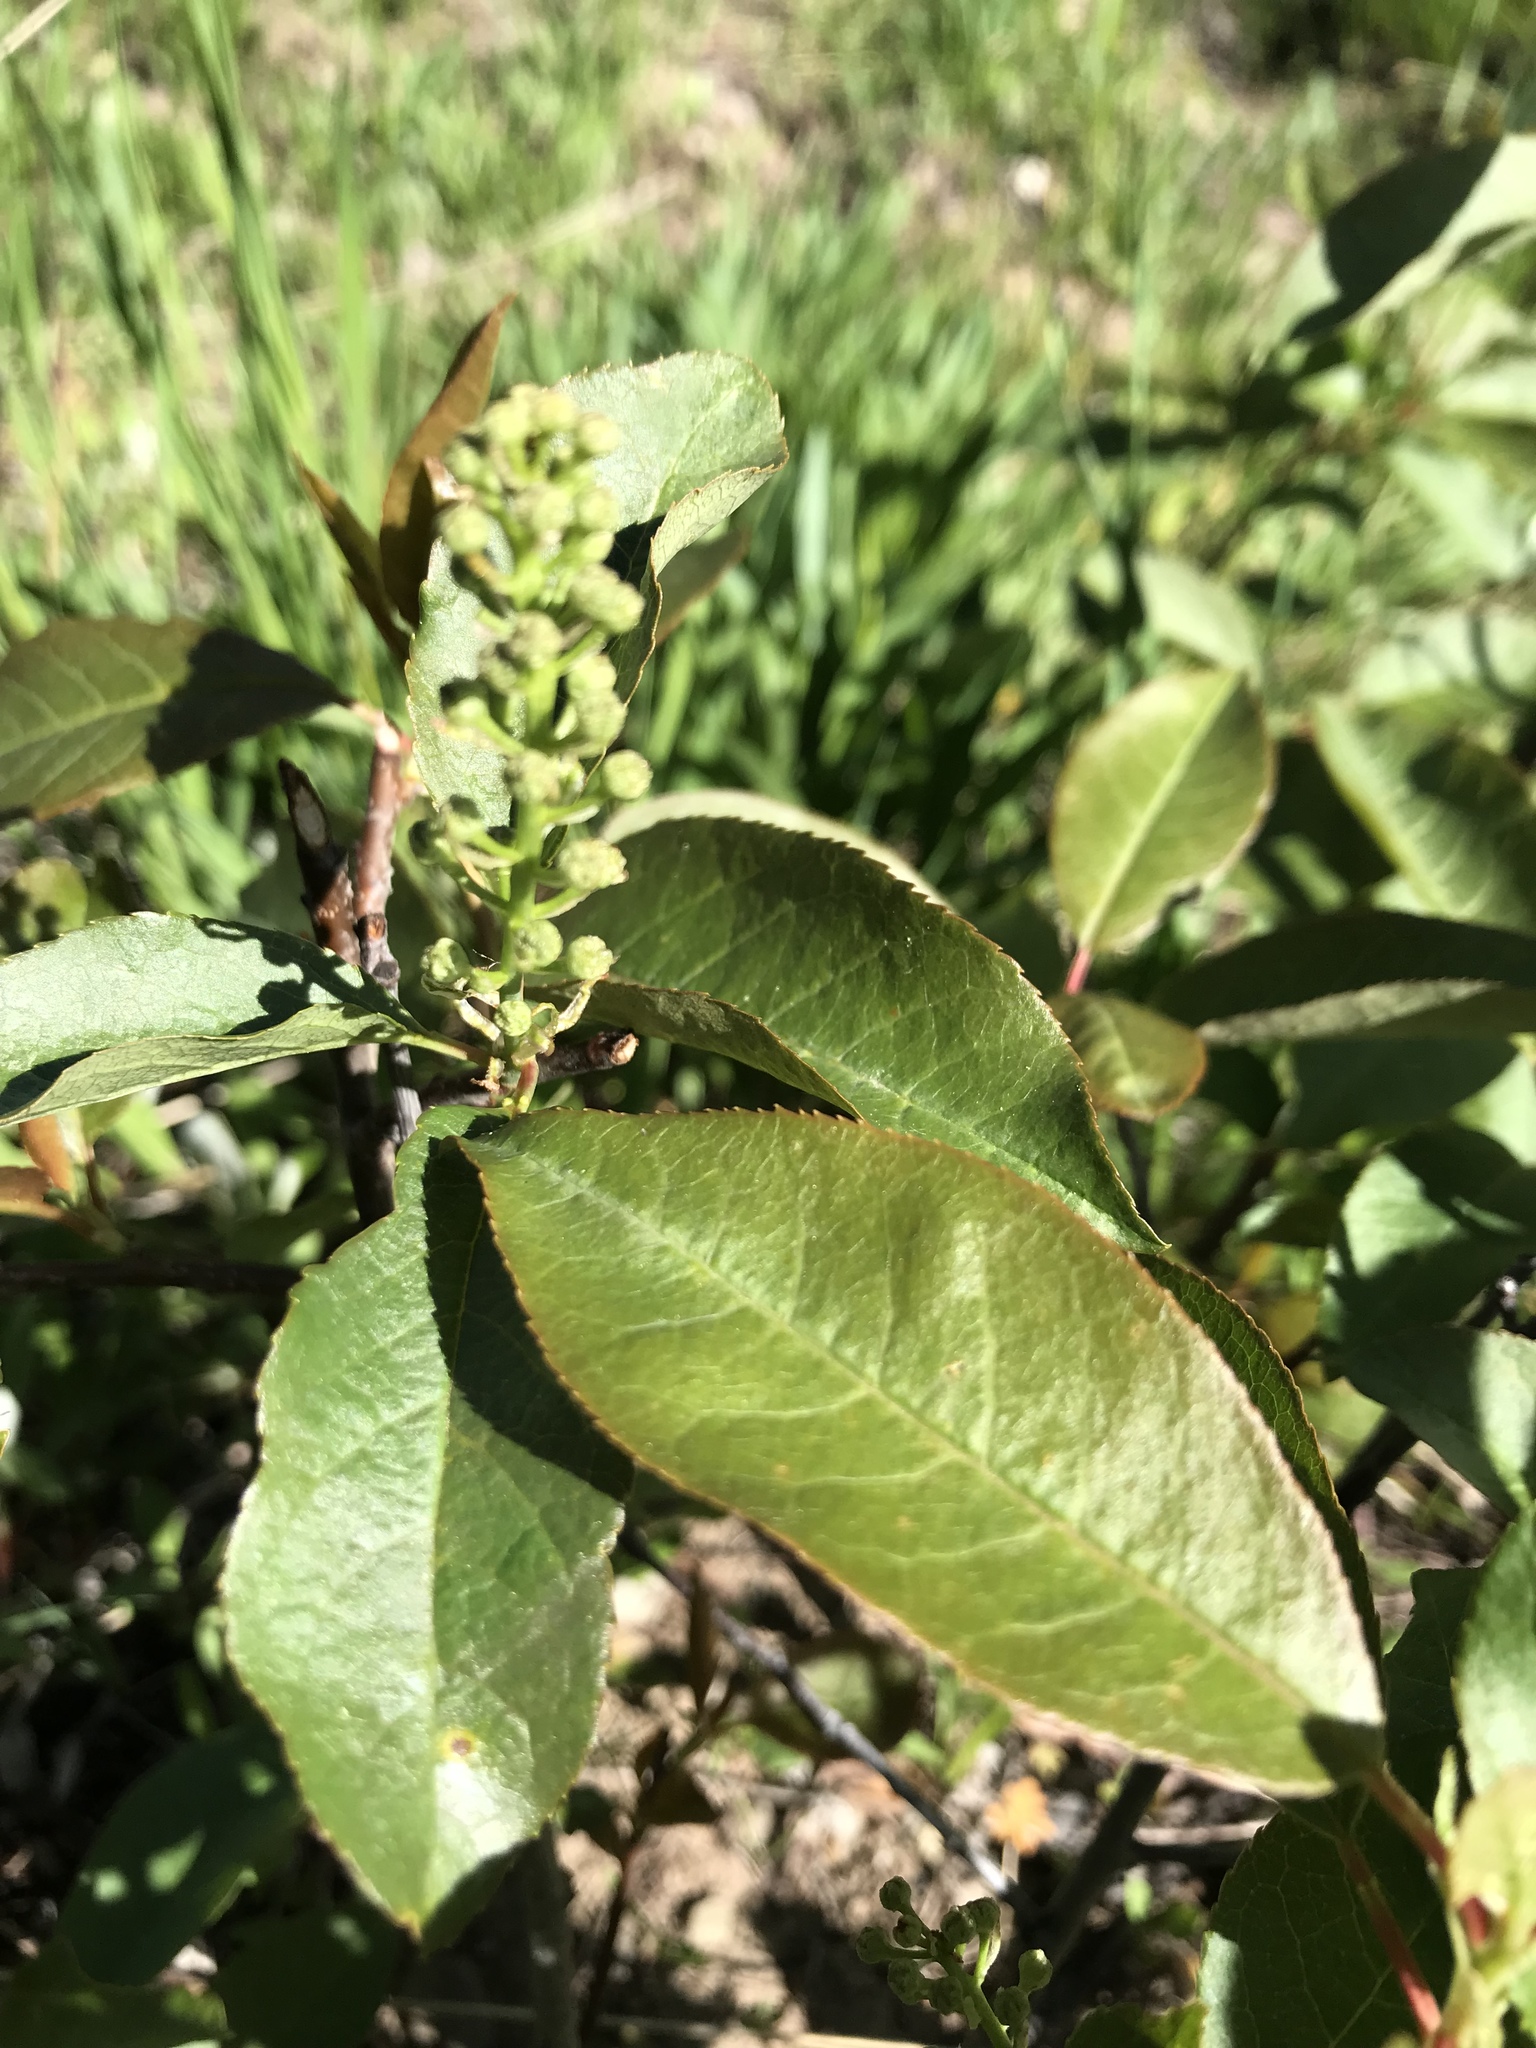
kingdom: Plantae
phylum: Tracheophyta
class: Magnoliopsida
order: Rosales
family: Rosaceae
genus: Prunus
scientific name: Prunus virginiana
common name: Chokecherry
